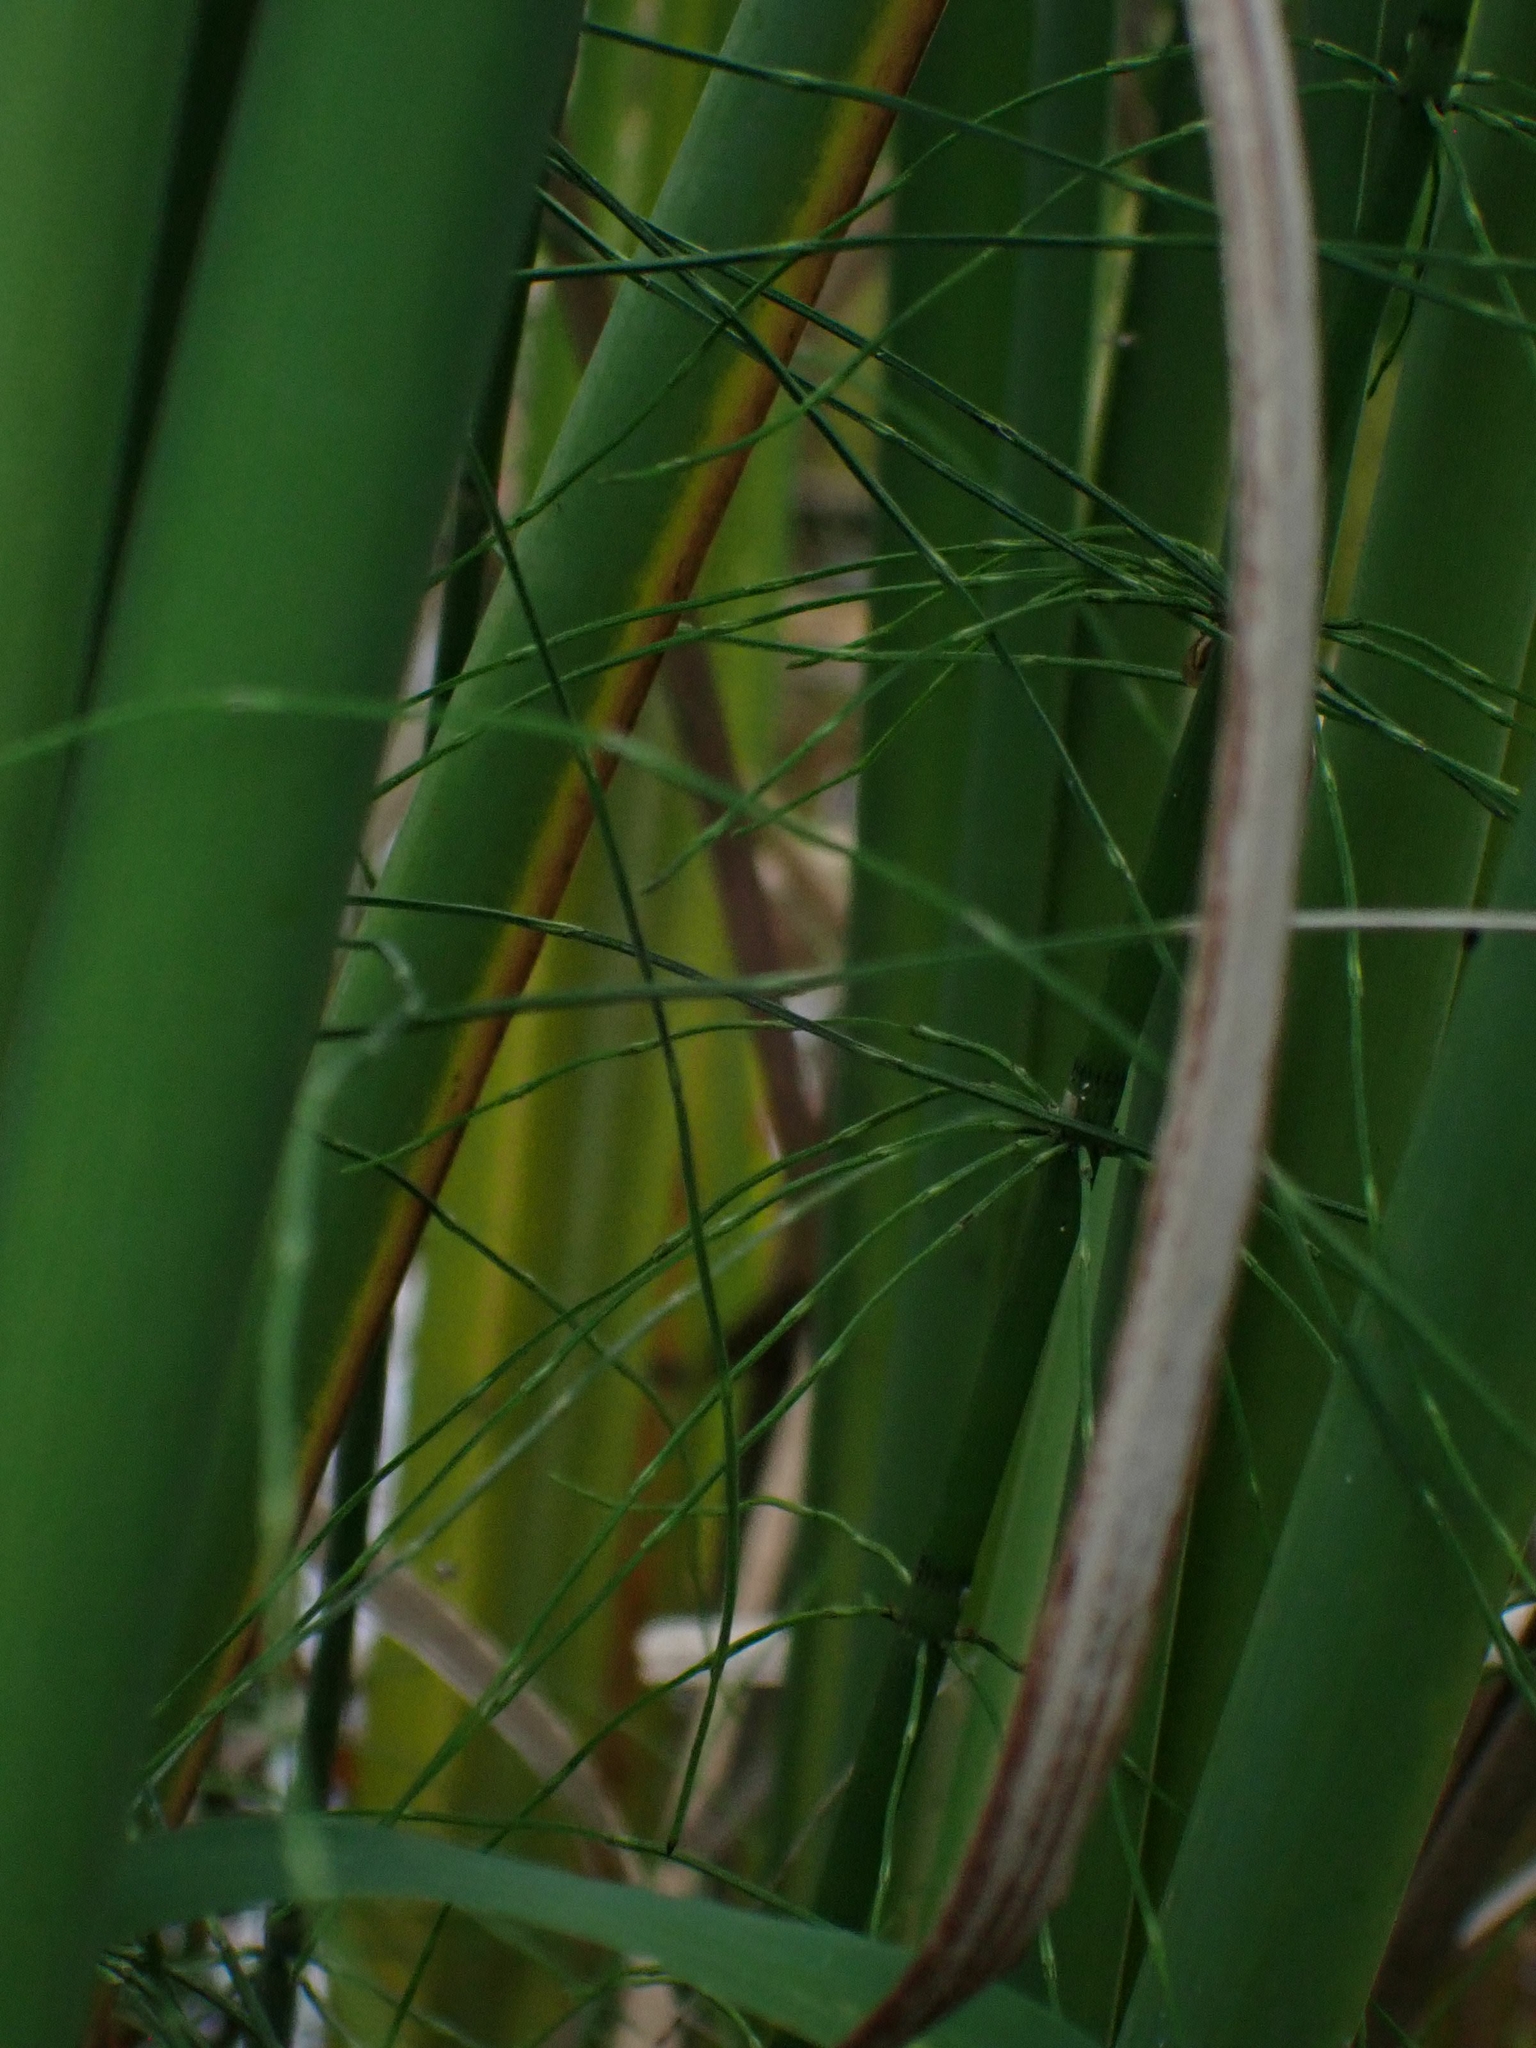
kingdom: Plantae
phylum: Tracheophyta
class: Polypodiopsida
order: Equisetales
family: Equisetaceae
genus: Equisetum
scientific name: Equisetum fluviatile
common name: Water horsetail
